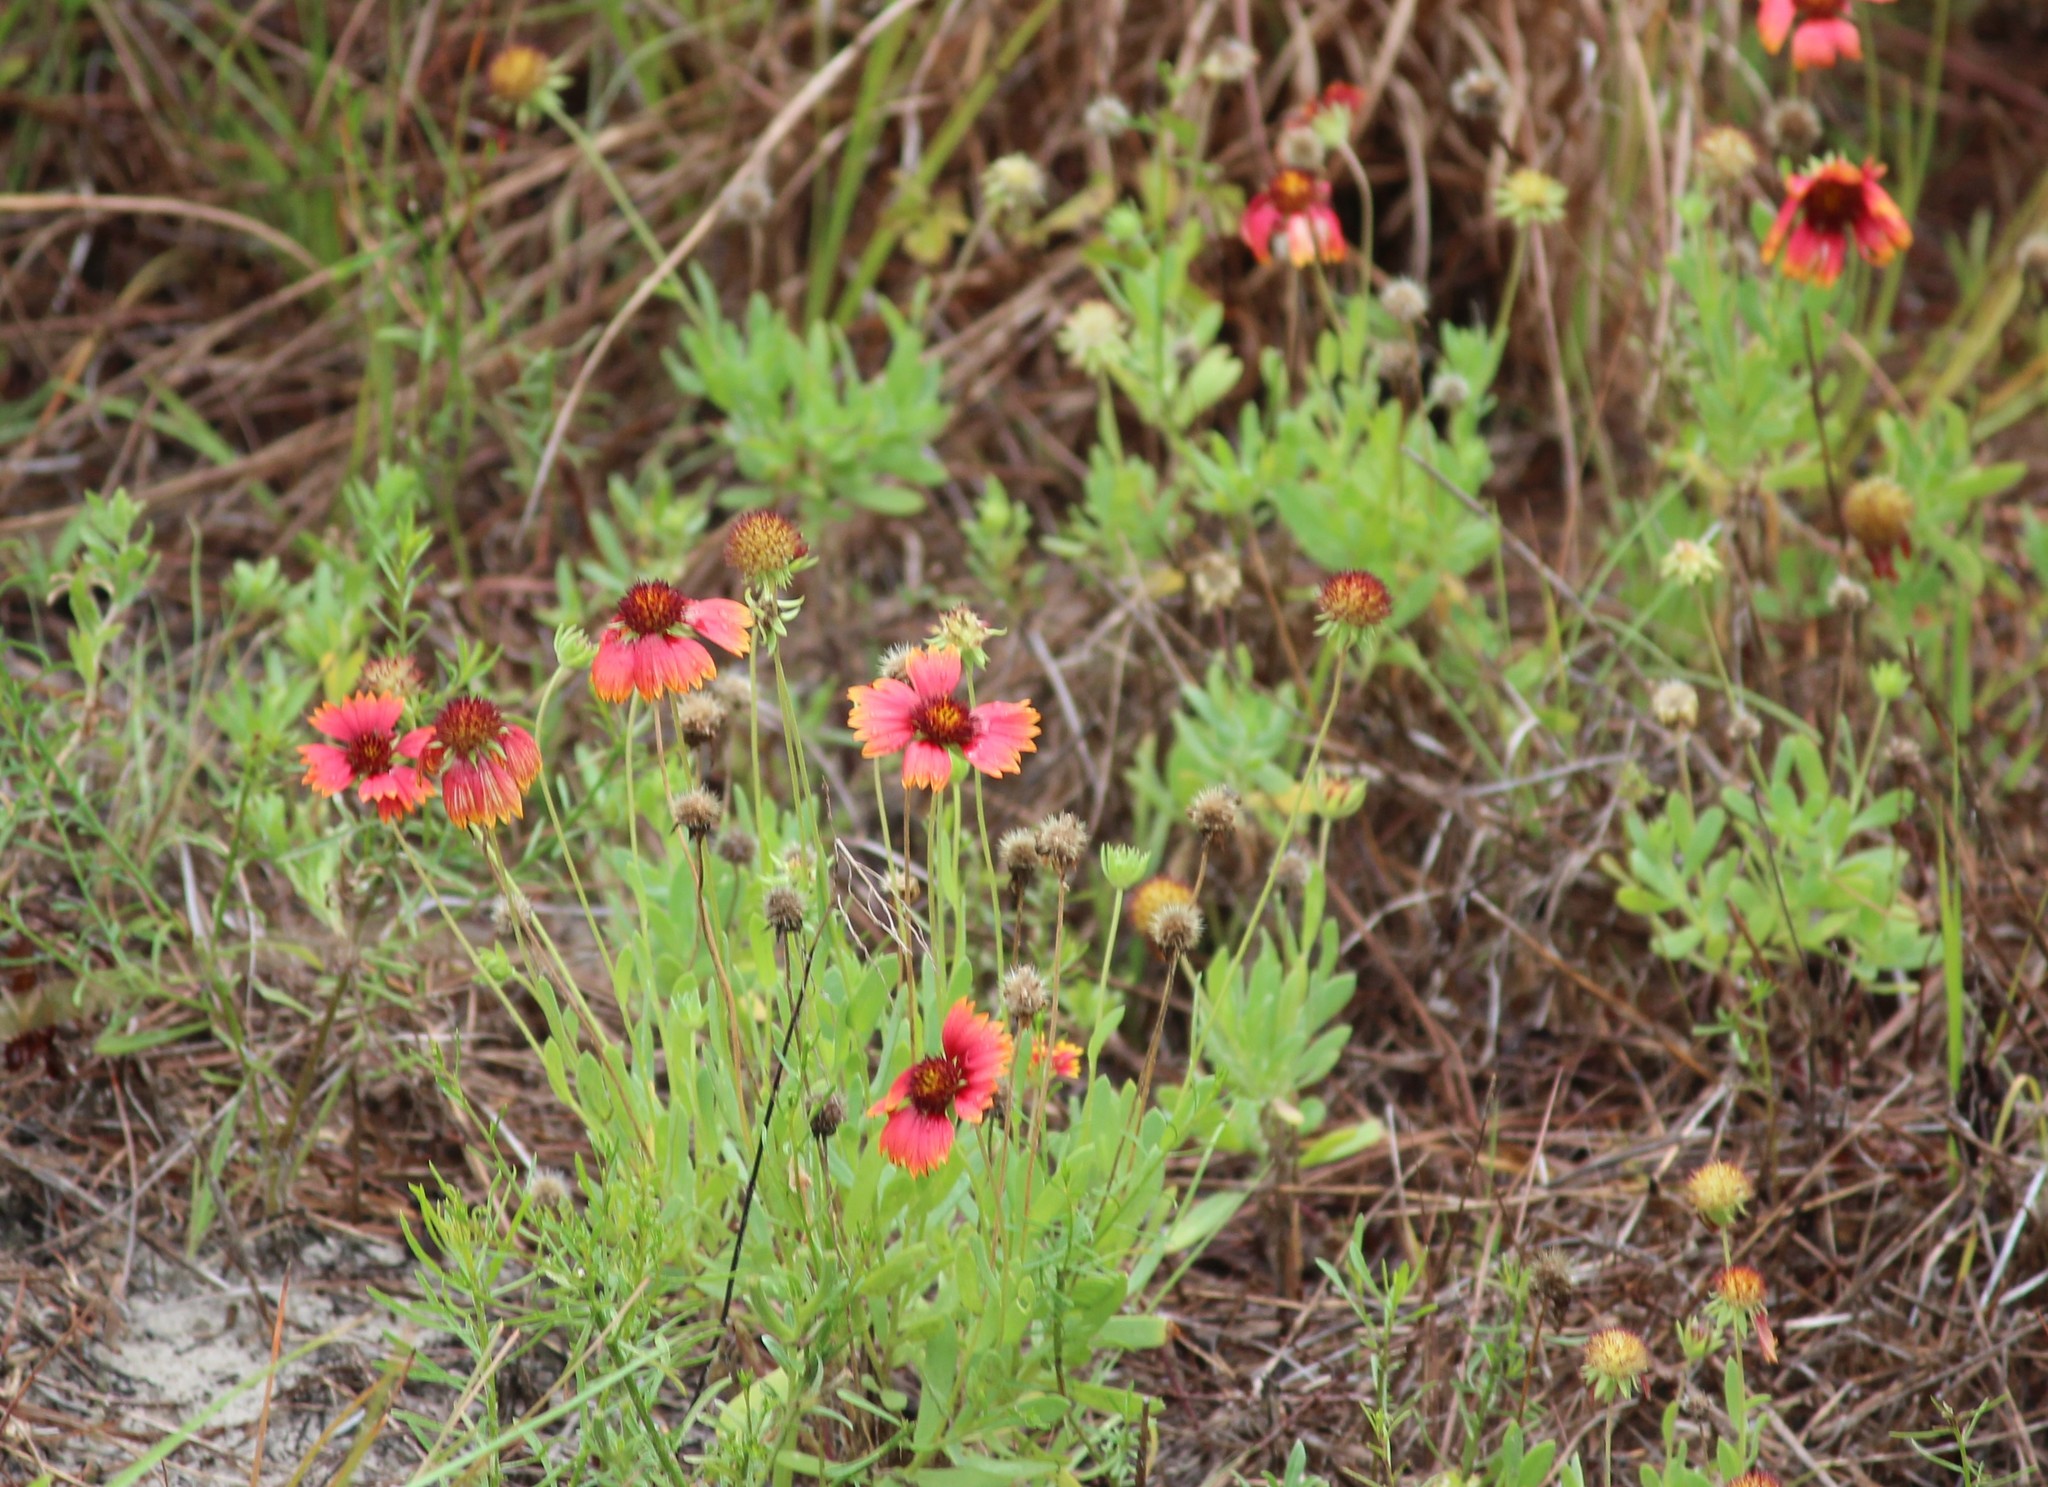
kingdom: Plantae
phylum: Tracheophyta
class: Magnoliopsida
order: Asterales
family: Asteraceae
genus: Gaillardia
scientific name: Gaillardia pulchella
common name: Firewheel
